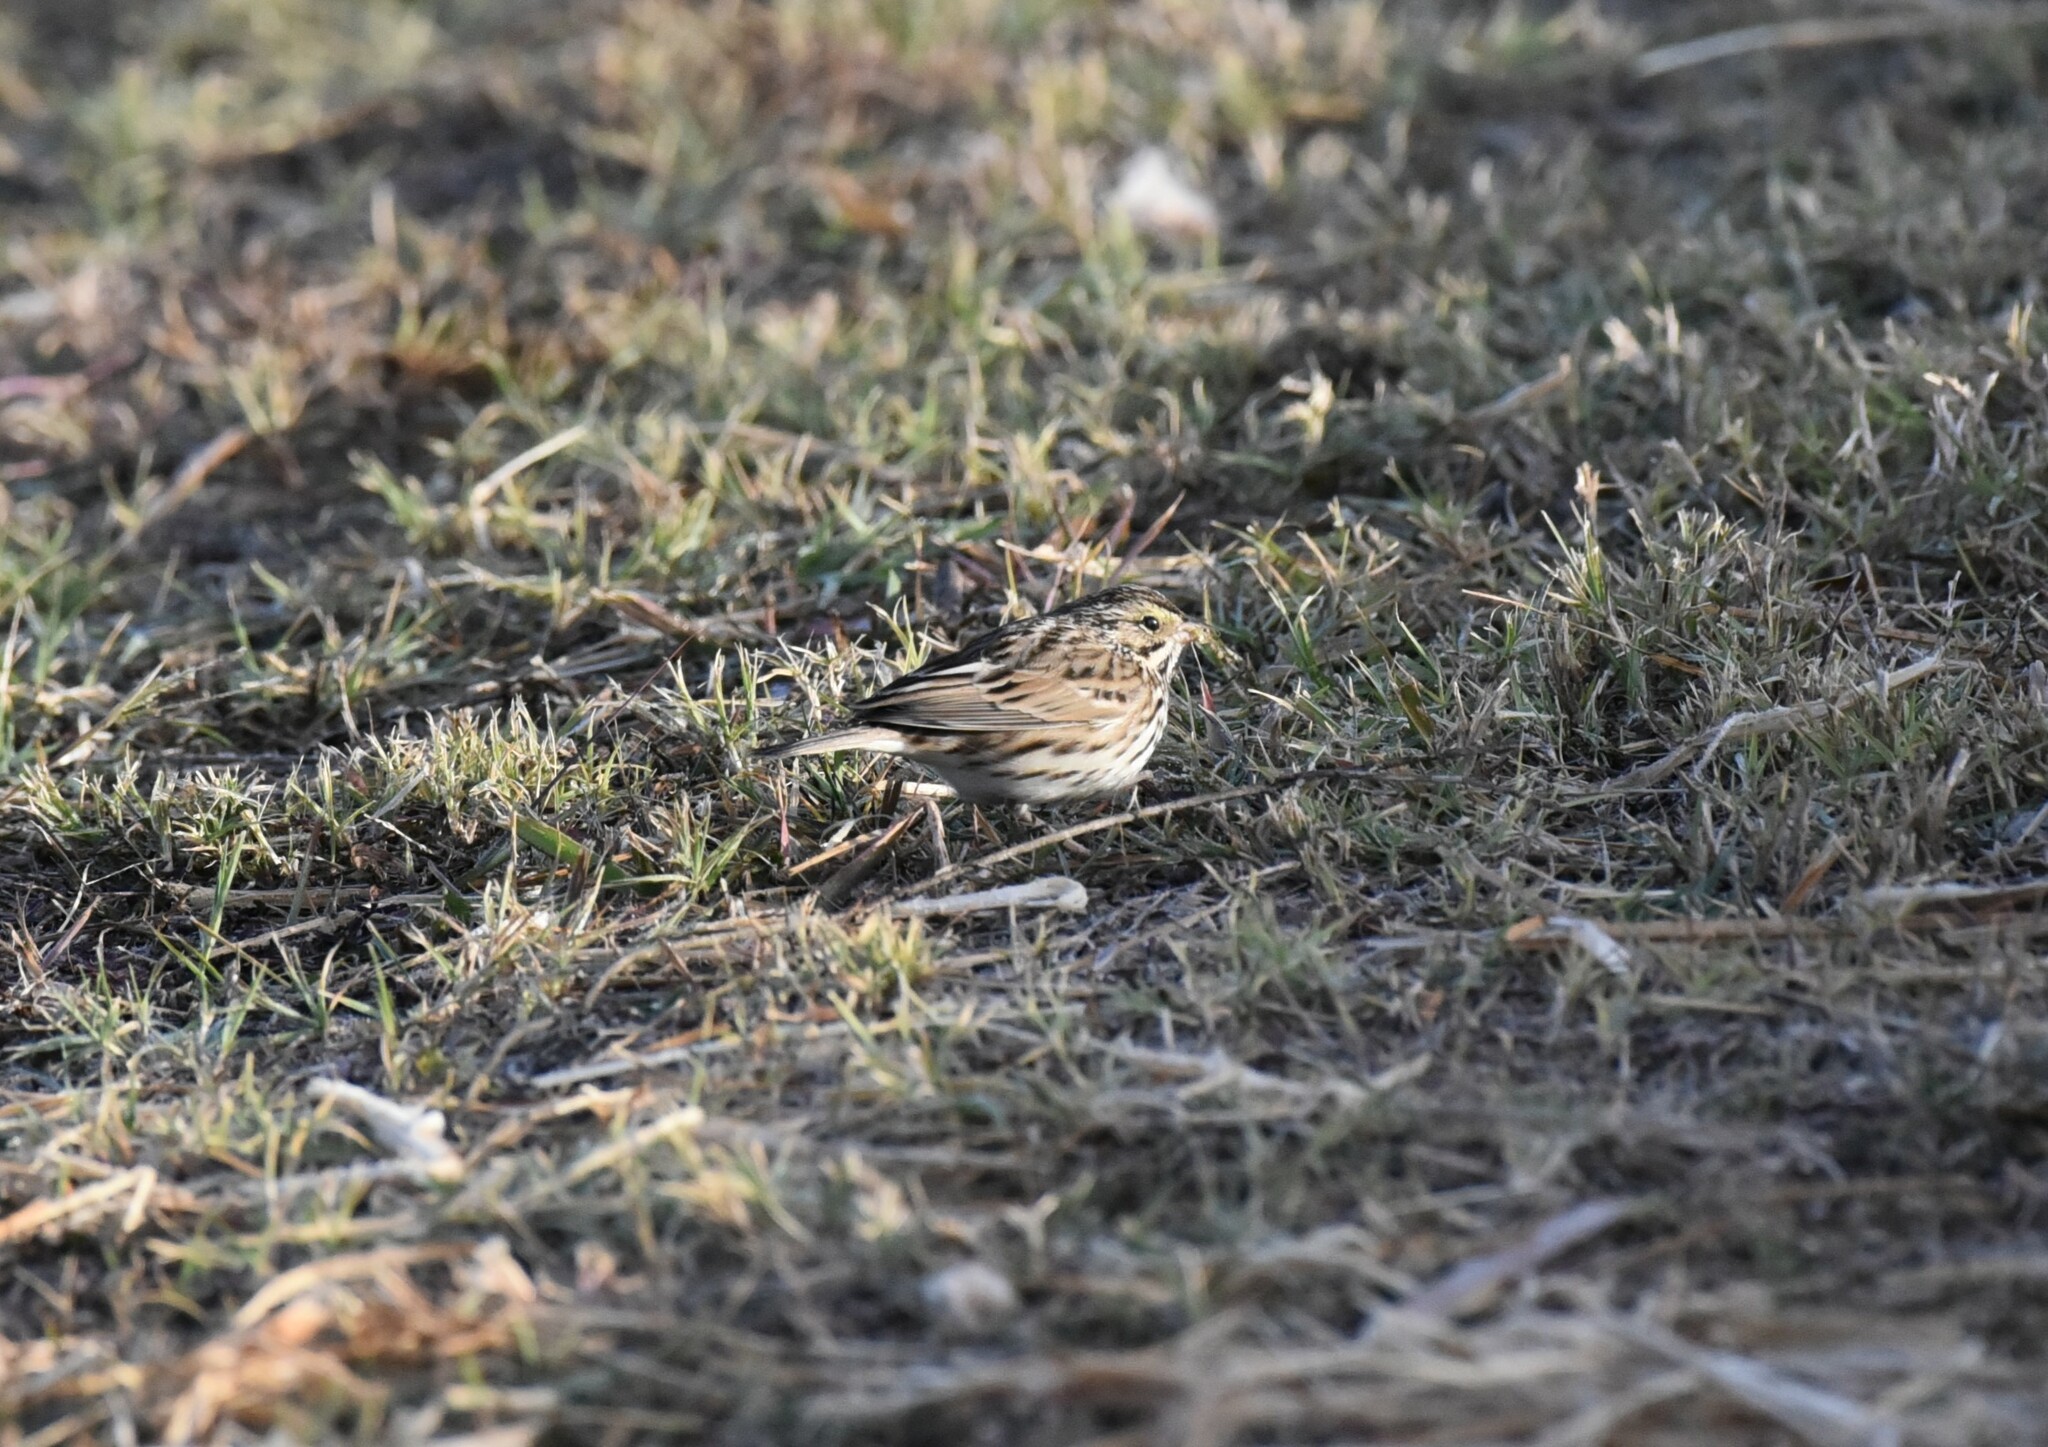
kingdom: Animalia
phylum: Chordata
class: Aves
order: Passeriformes
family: Passerellidae
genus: Passerculus
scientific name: Passerculus sandwichensis
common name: Savannah sparrow
